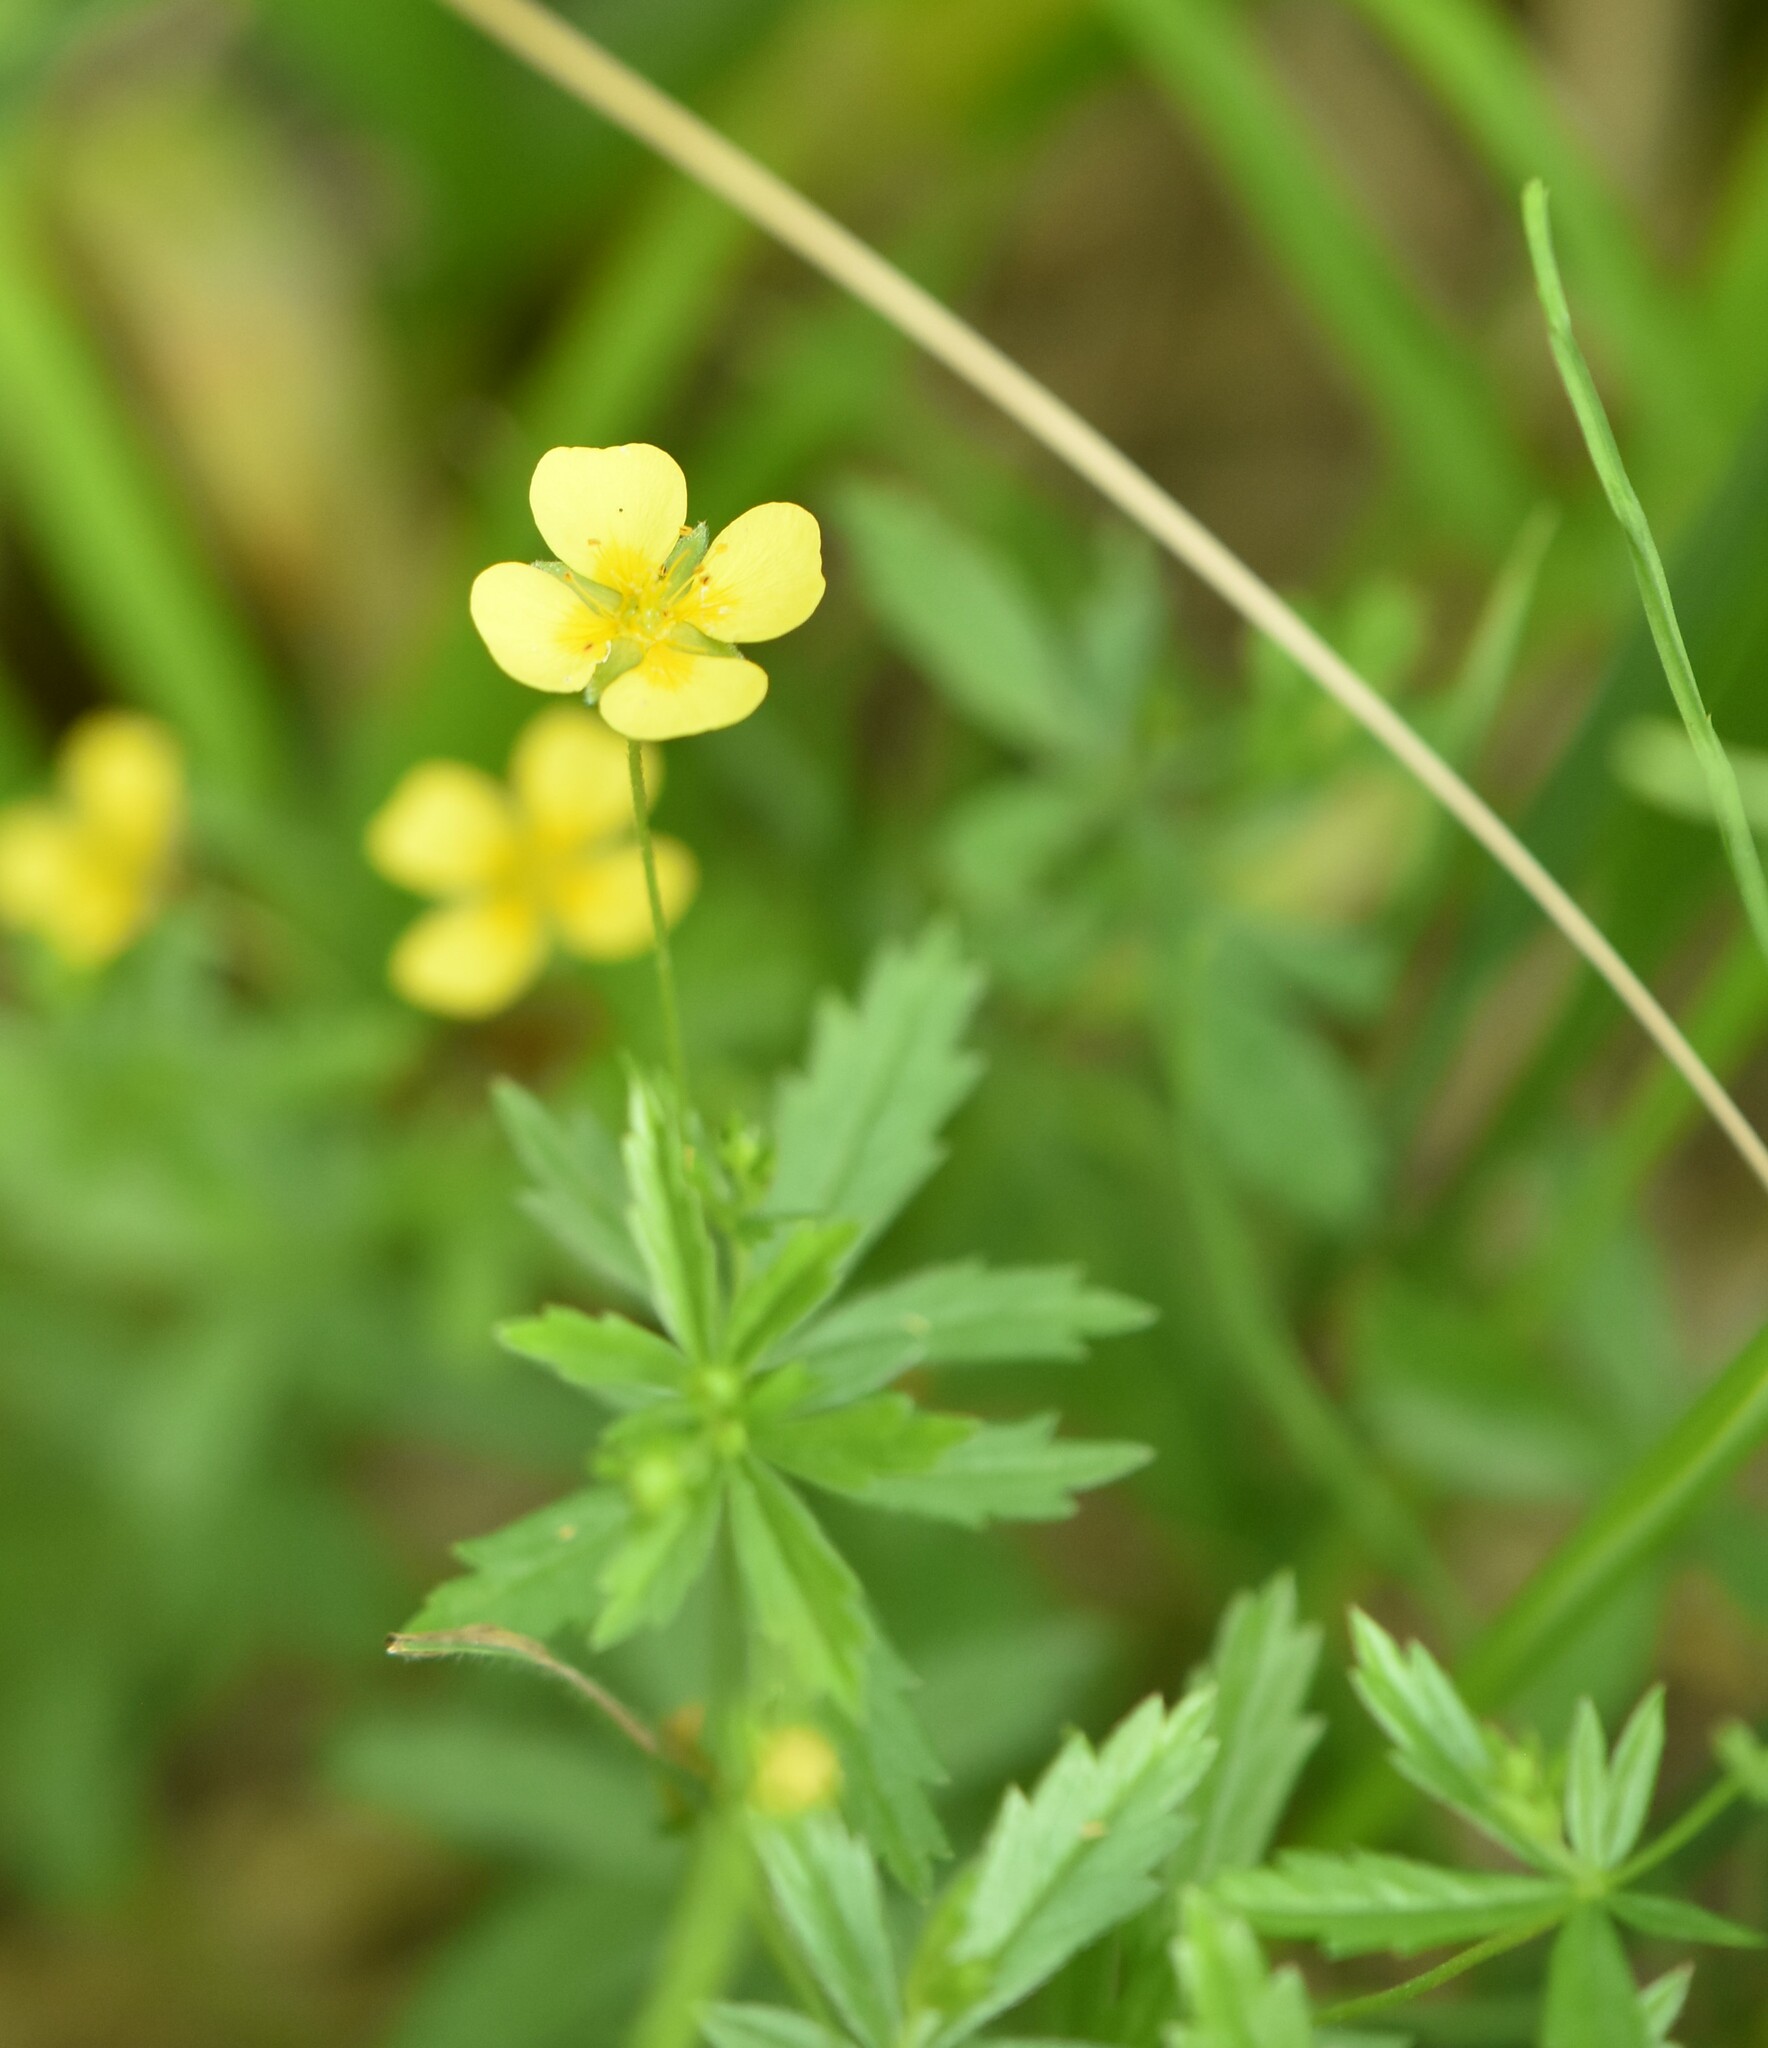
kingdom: Plantae
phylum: Tracheophyta
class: Magnoliopsida
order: Rosales
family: Rosaceae
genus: Potentilla
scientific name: Potentilla erecta
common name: Tormentil
